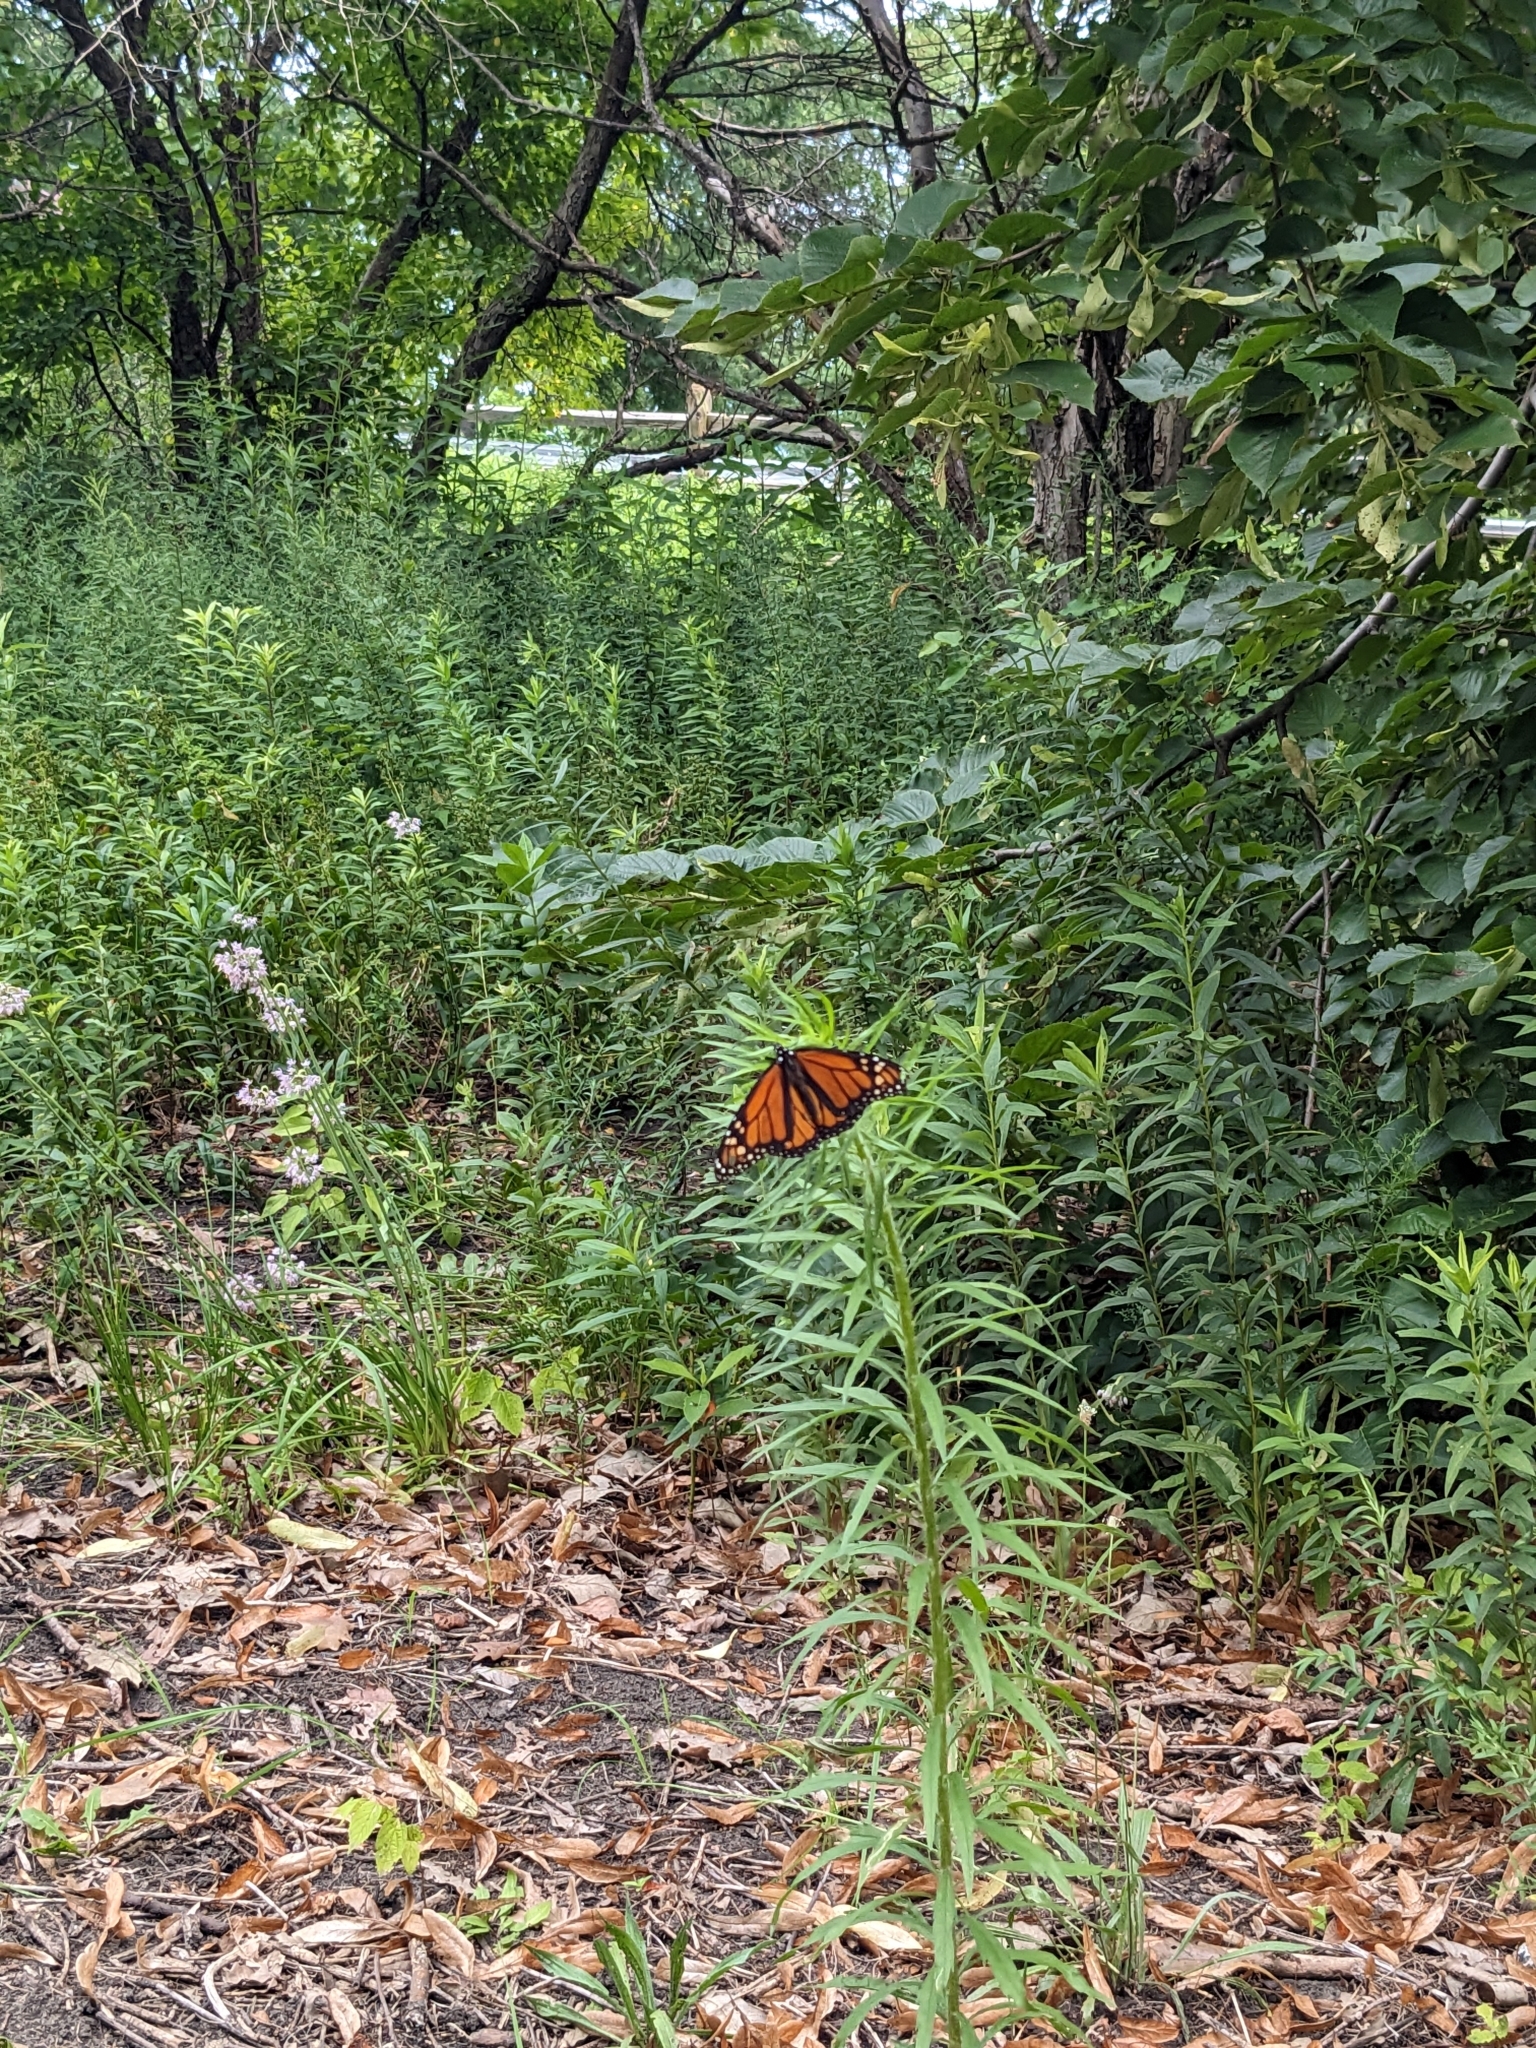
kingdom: Animalia
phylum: Arthropoda
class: Insecta
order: Lepidoptera
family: Nymphalidae
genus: Danaus
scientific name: Danaus plexippus
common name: Monarch
